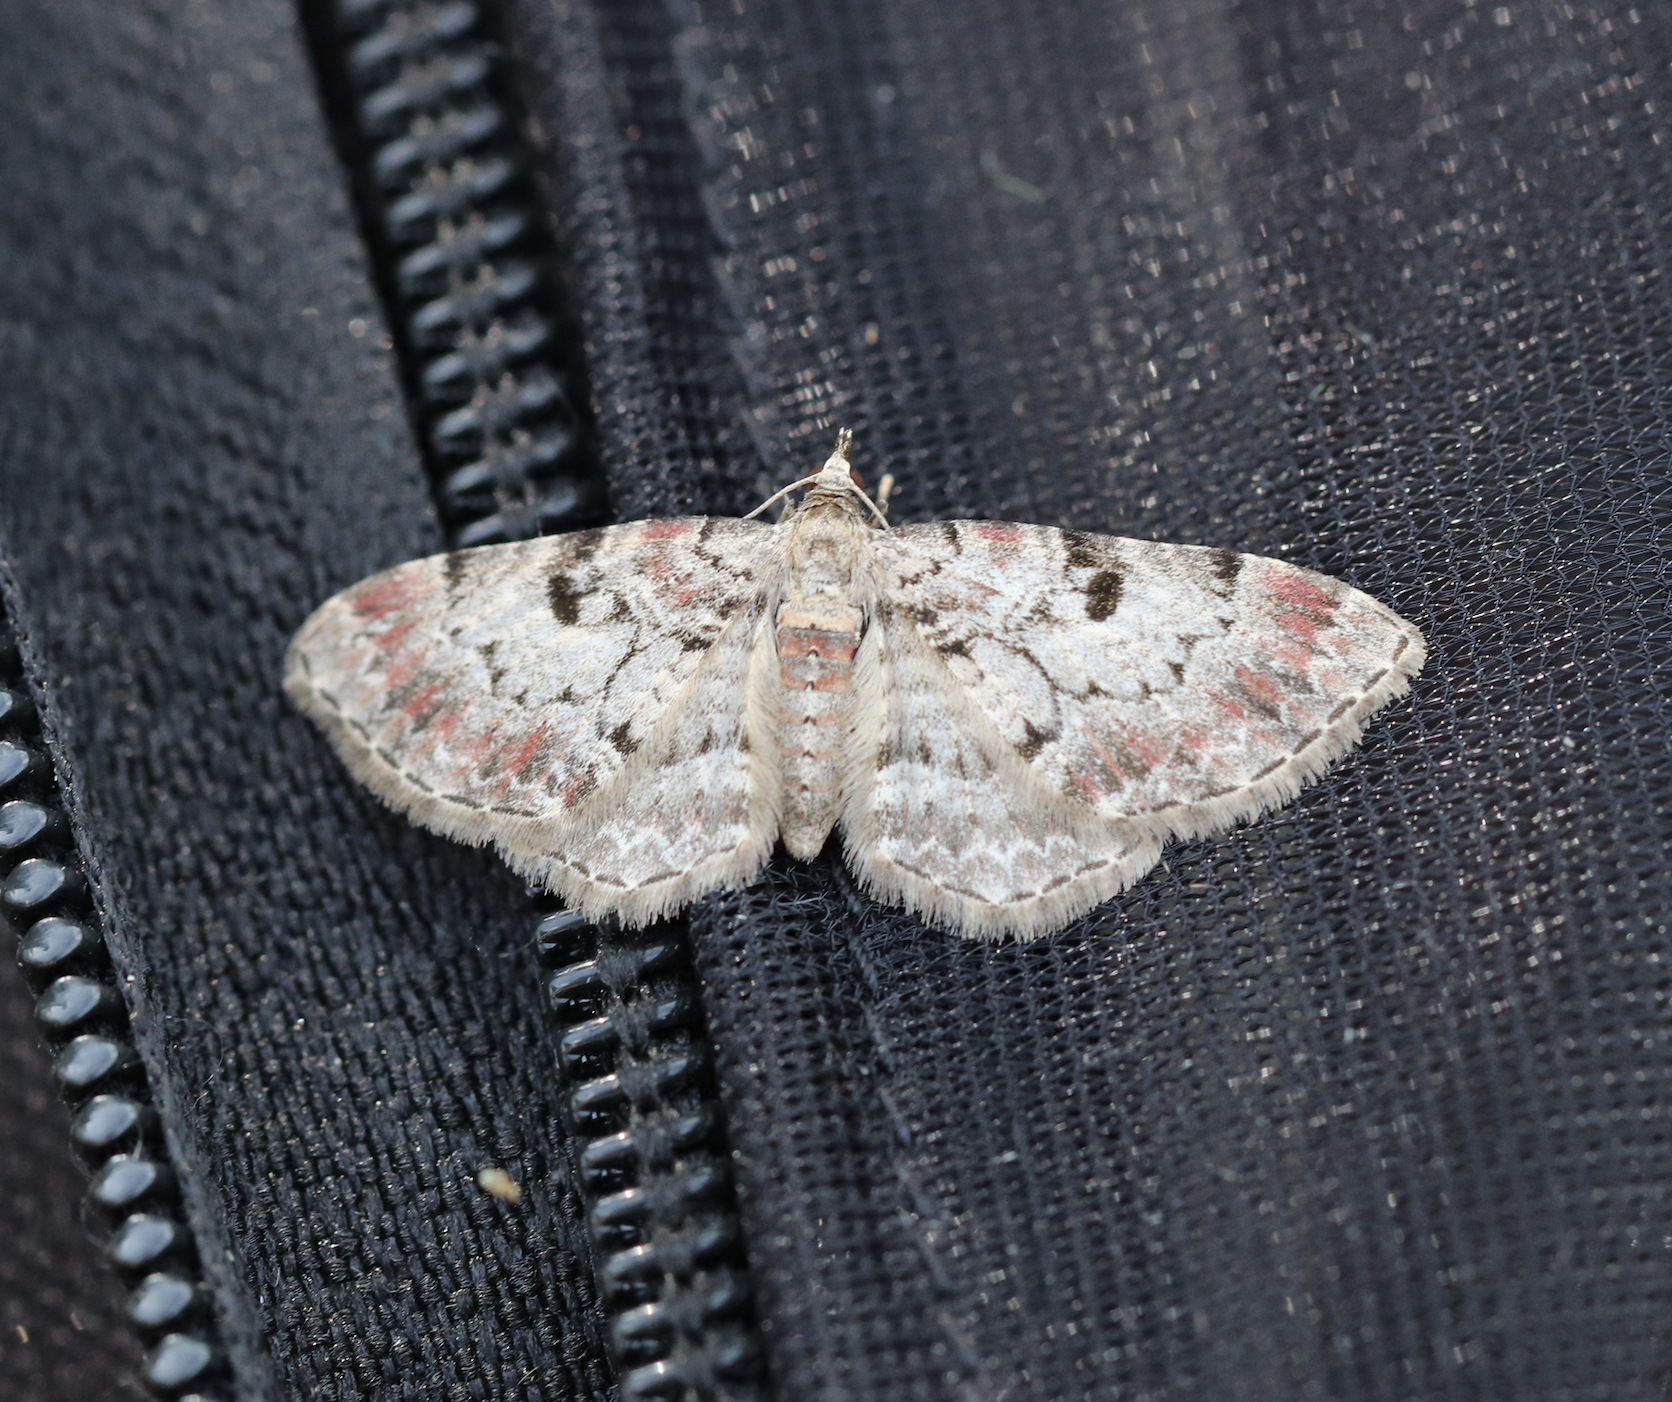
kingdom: Animalia
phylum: Arthropoda
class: Insecta
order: Lepidoptera
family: Geometridae
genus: Eupithecia
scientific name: Eupithecia analoga
